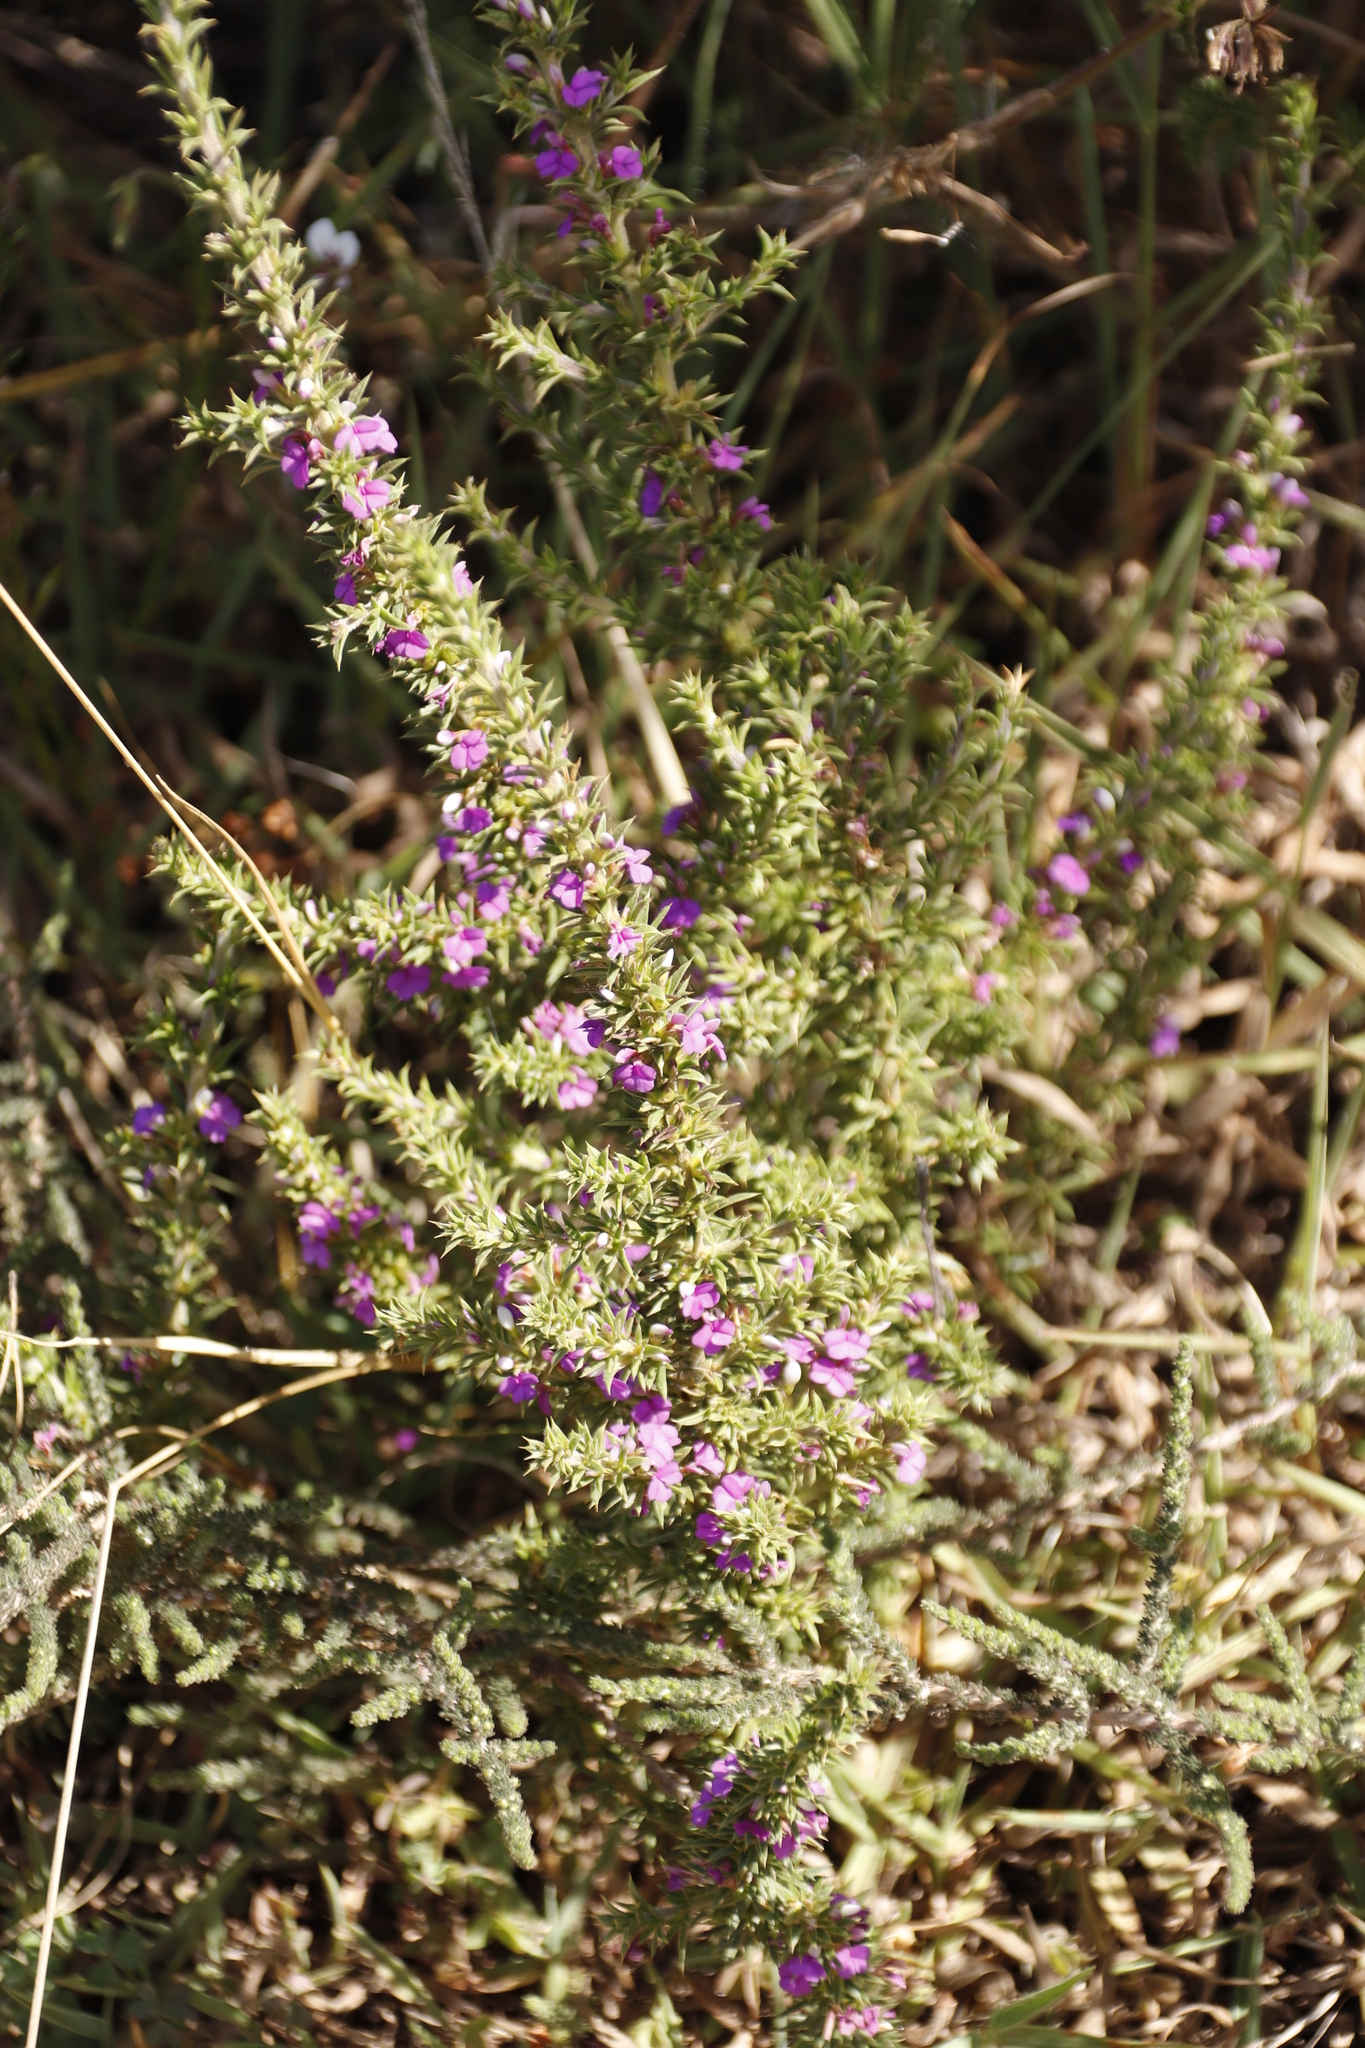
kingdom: Plantae
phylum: Tracheophyta
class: Magnoliopsida
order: Fabales
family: Polygalaceae
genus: Muraltia
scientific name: Muraltia heisteria
